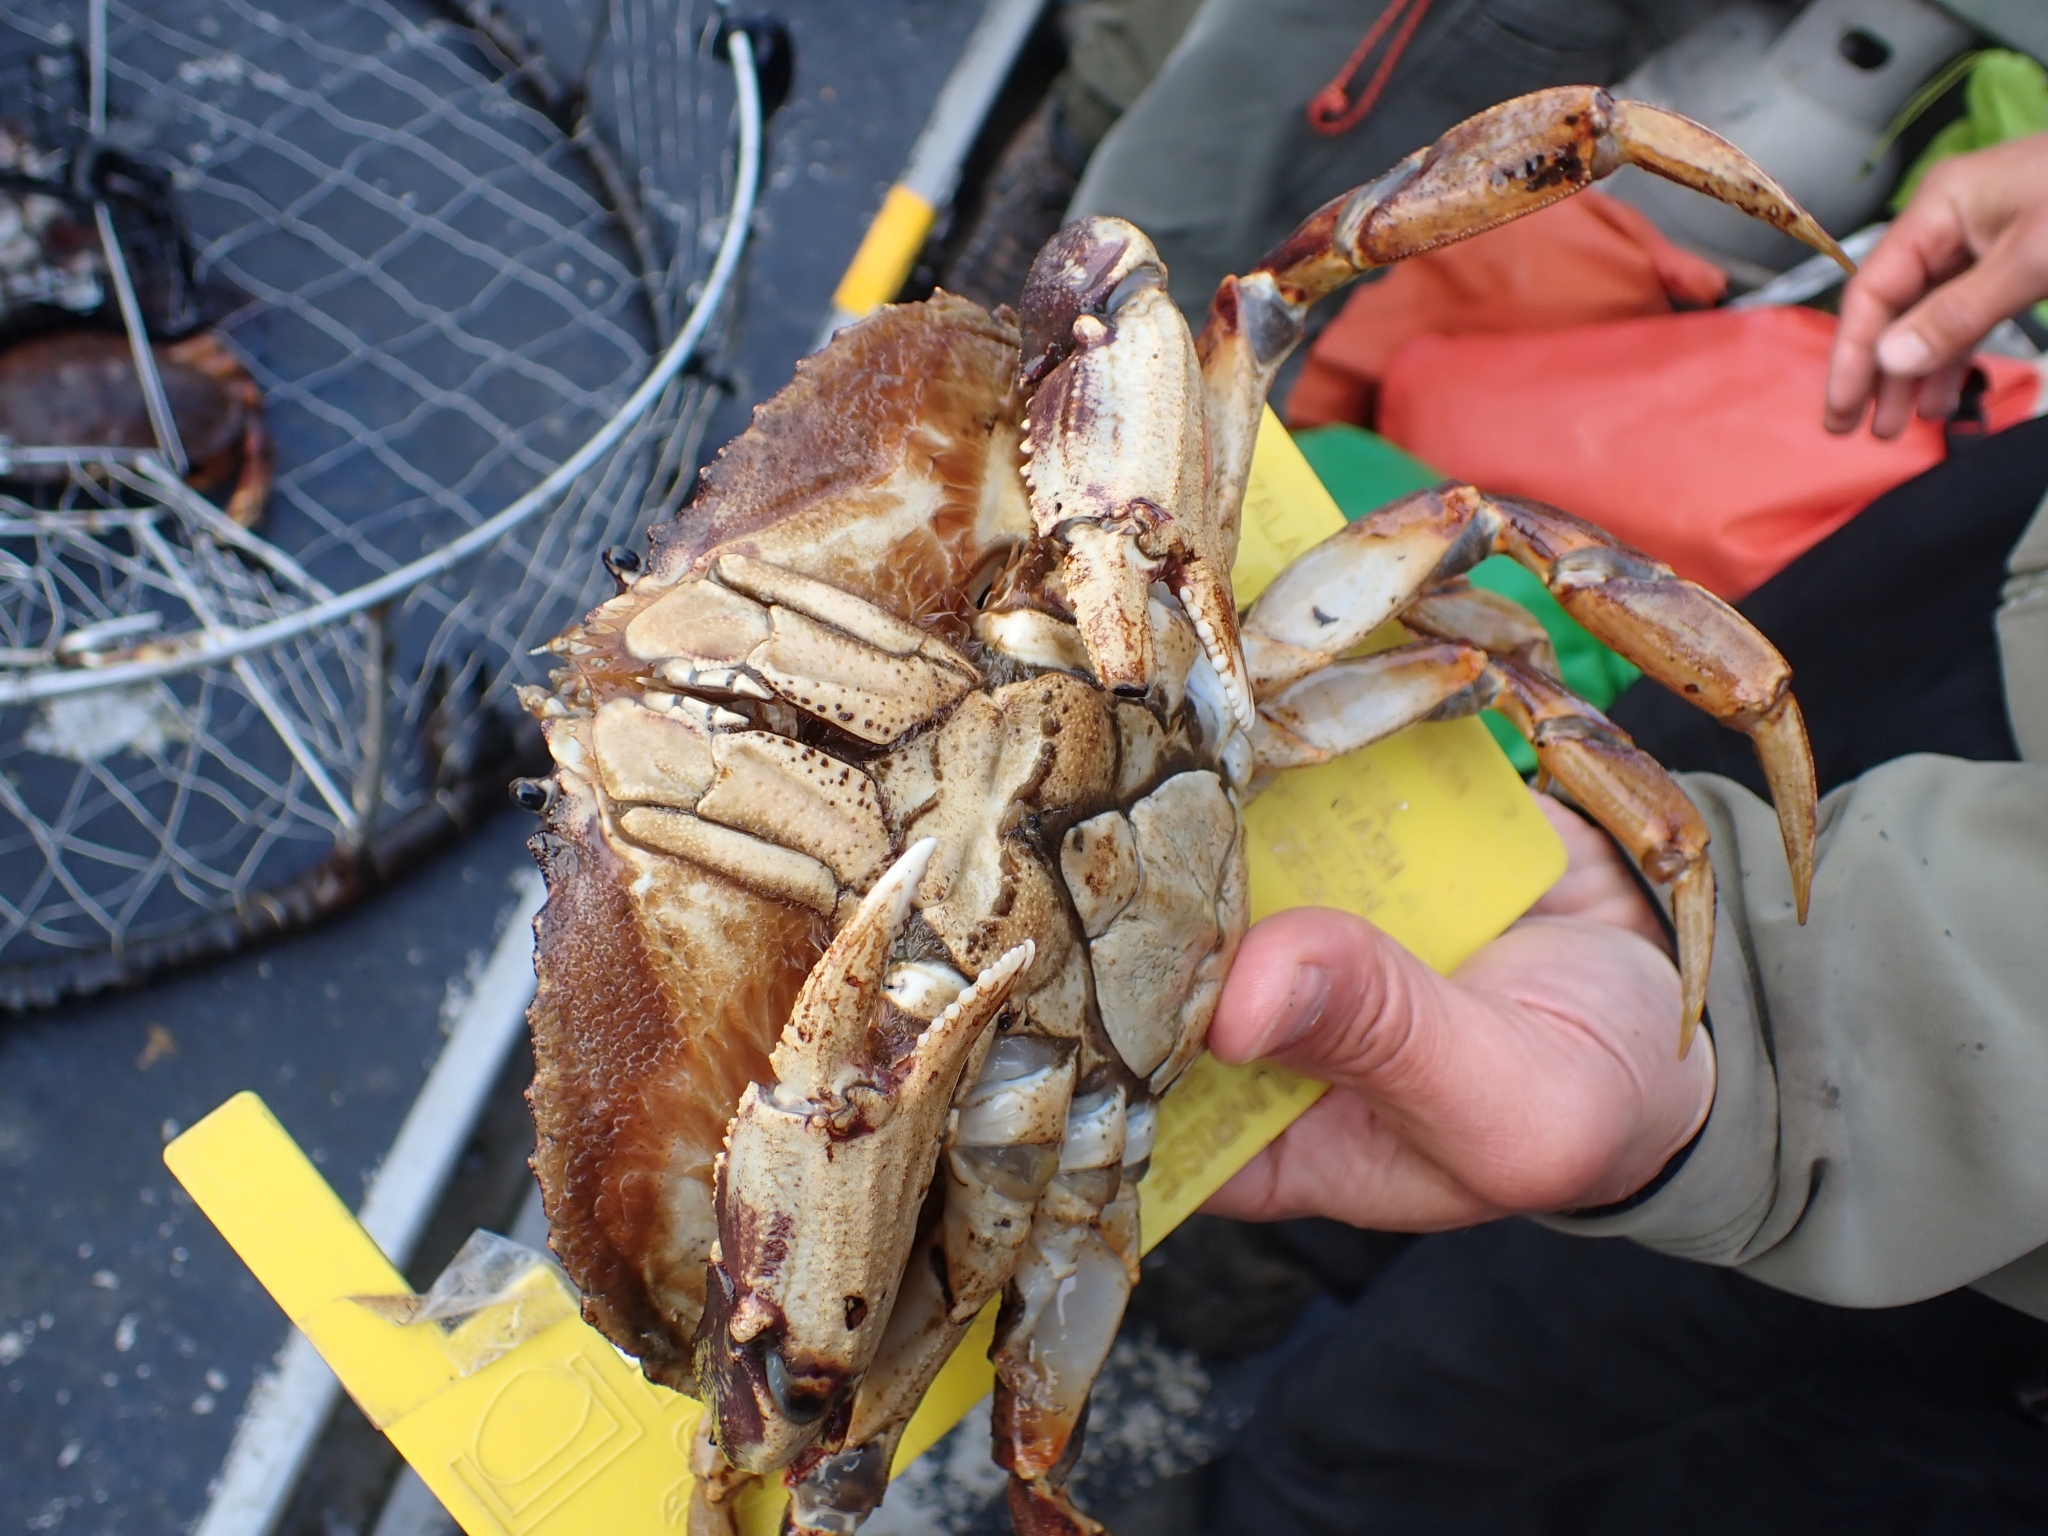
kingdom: Animalia
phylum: Arthropoda
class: Malacostraca
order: Decapoda
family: Cancridae
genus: Metacarcinus
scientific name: Metacarcinus magister
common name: Californian crab
